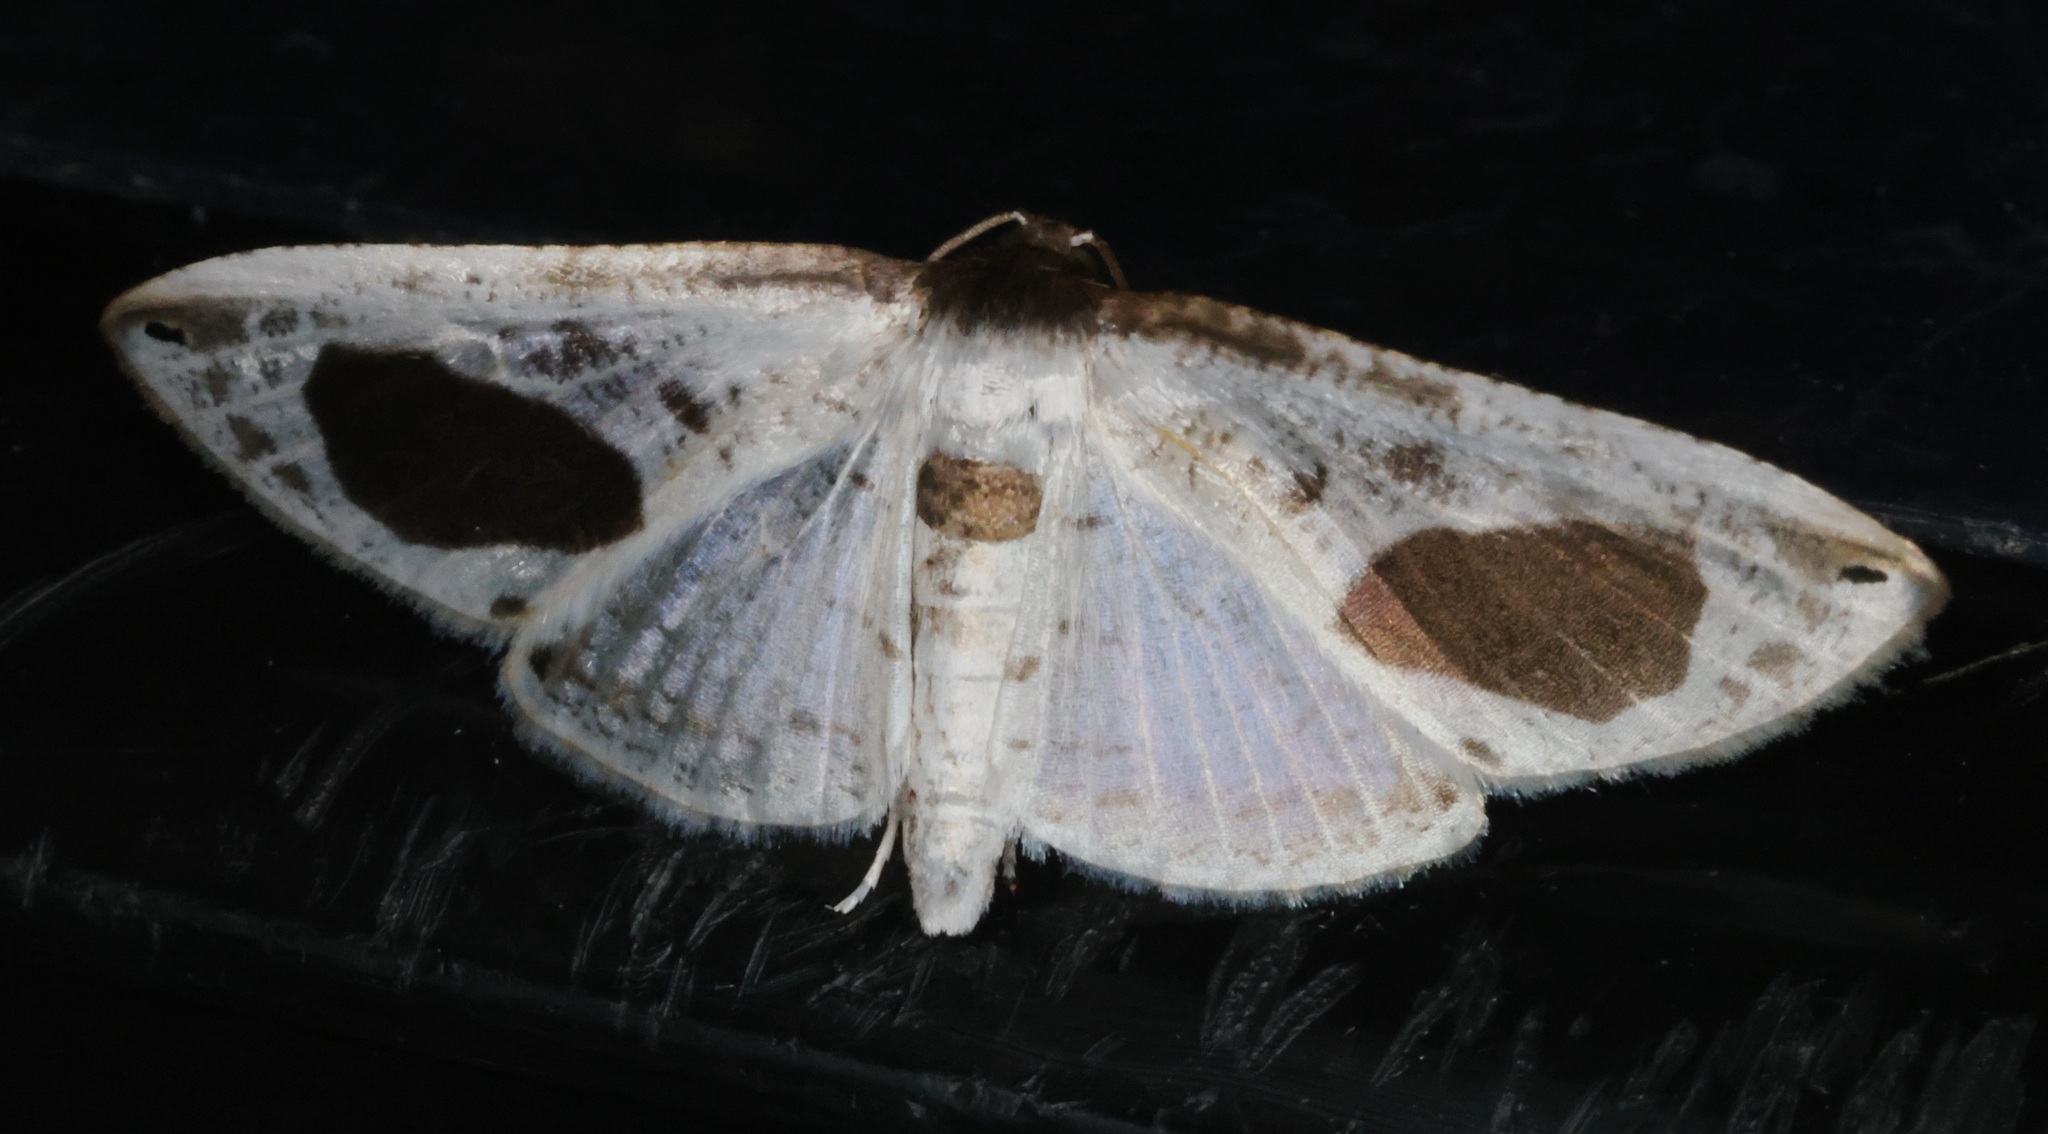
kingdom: Animalia
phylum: Arthropoda
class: Insecta
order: Lepidoptera
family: Thyrididae
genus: Calindoea
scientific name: Calindoea
